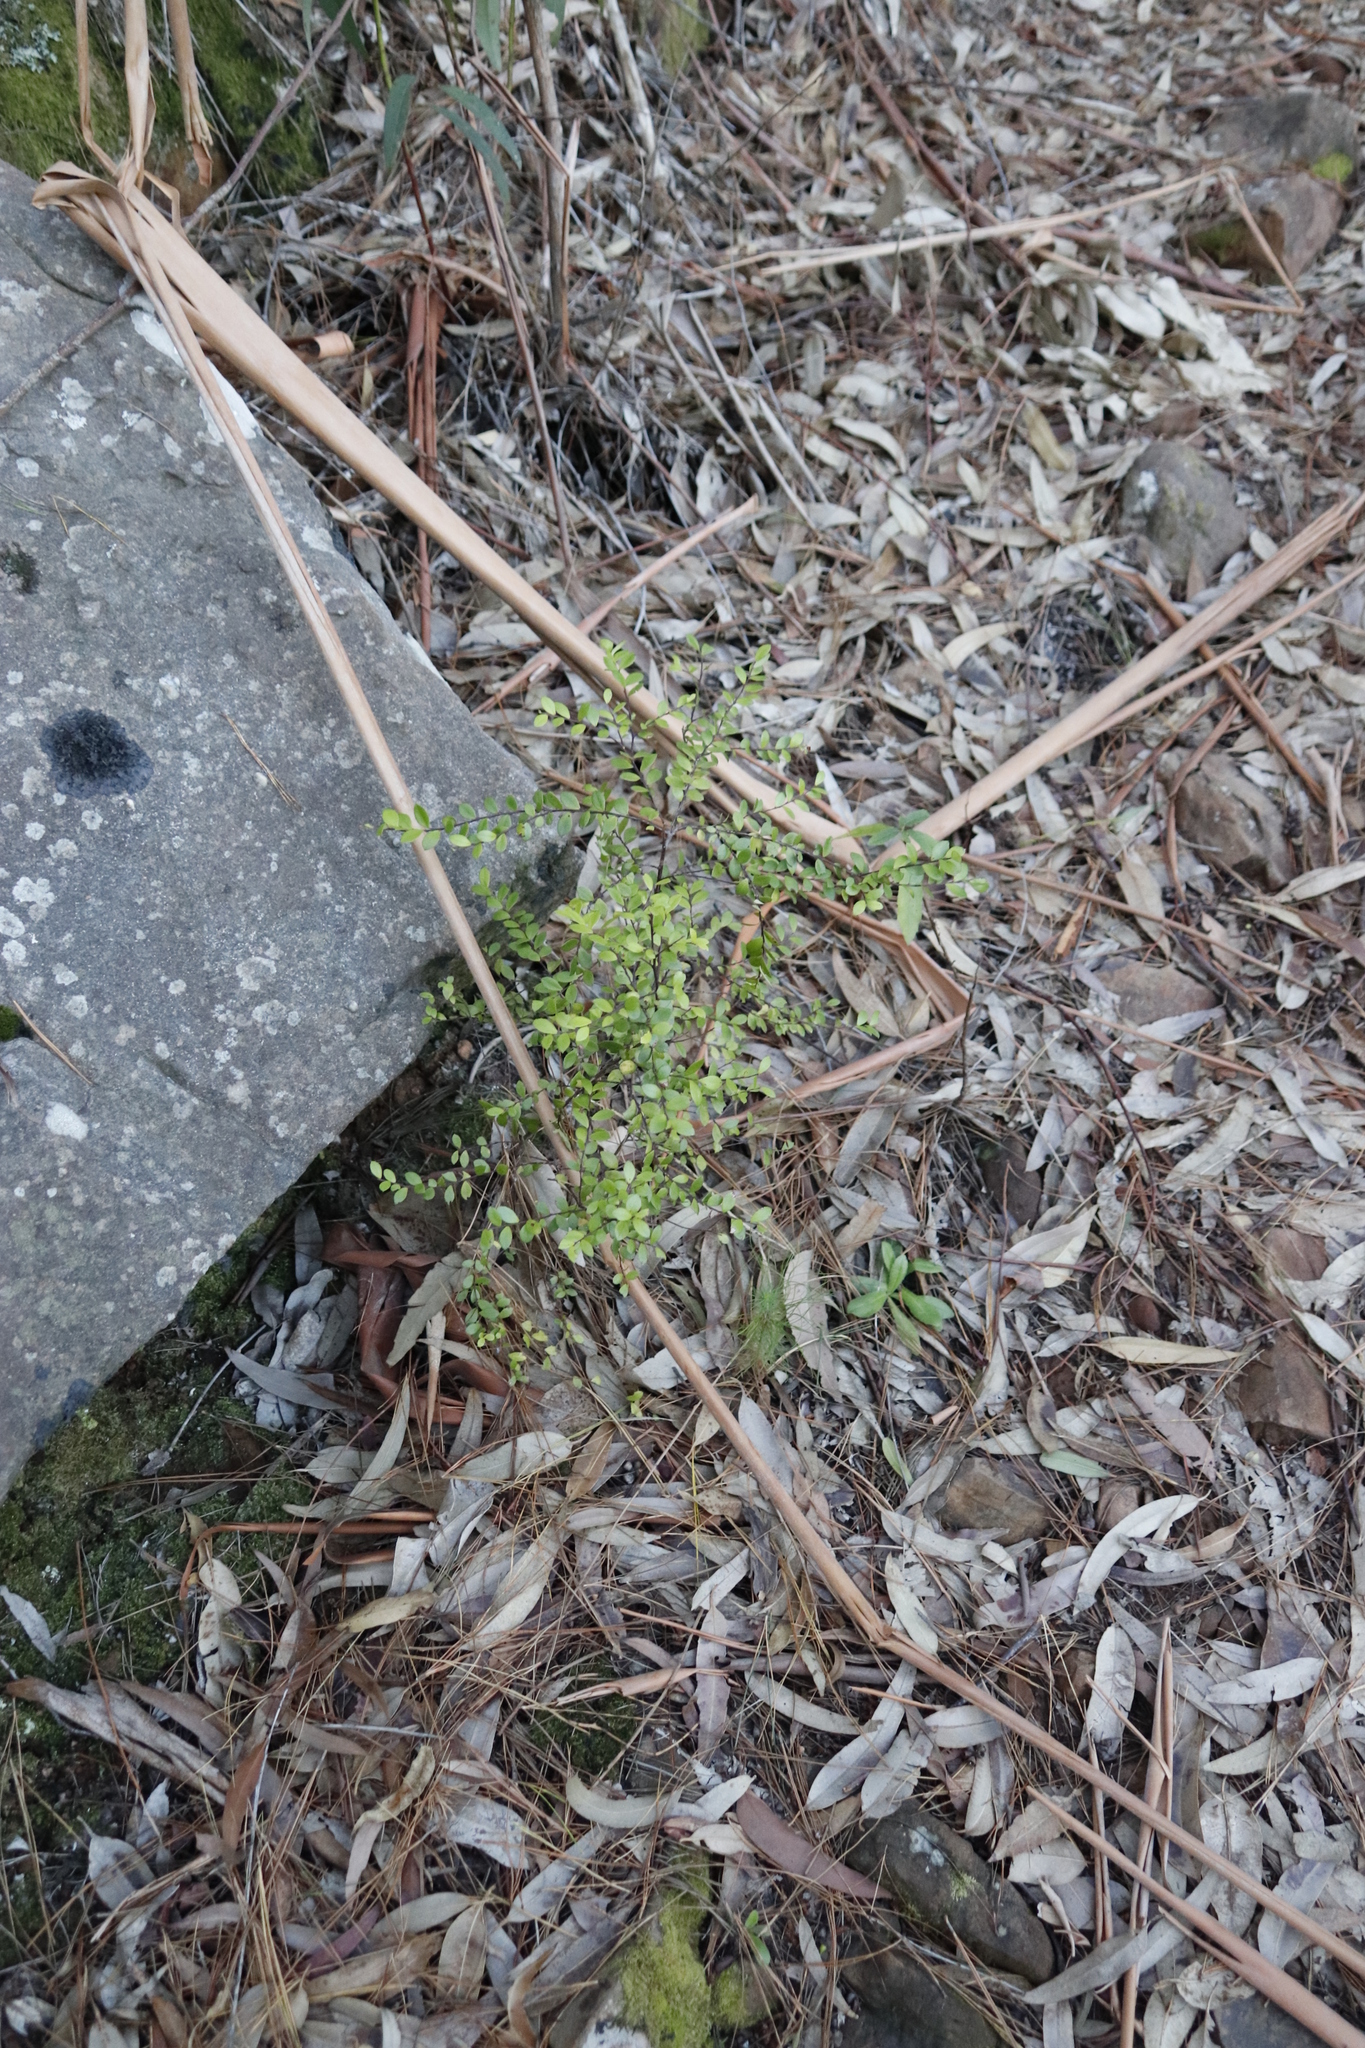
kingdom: Plantae
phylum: Tracheophyta
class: Magnoliopsida
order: Ericales
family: Primulaceae
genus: Myrsine
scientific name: Myrsine africana
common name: African-boxwood
